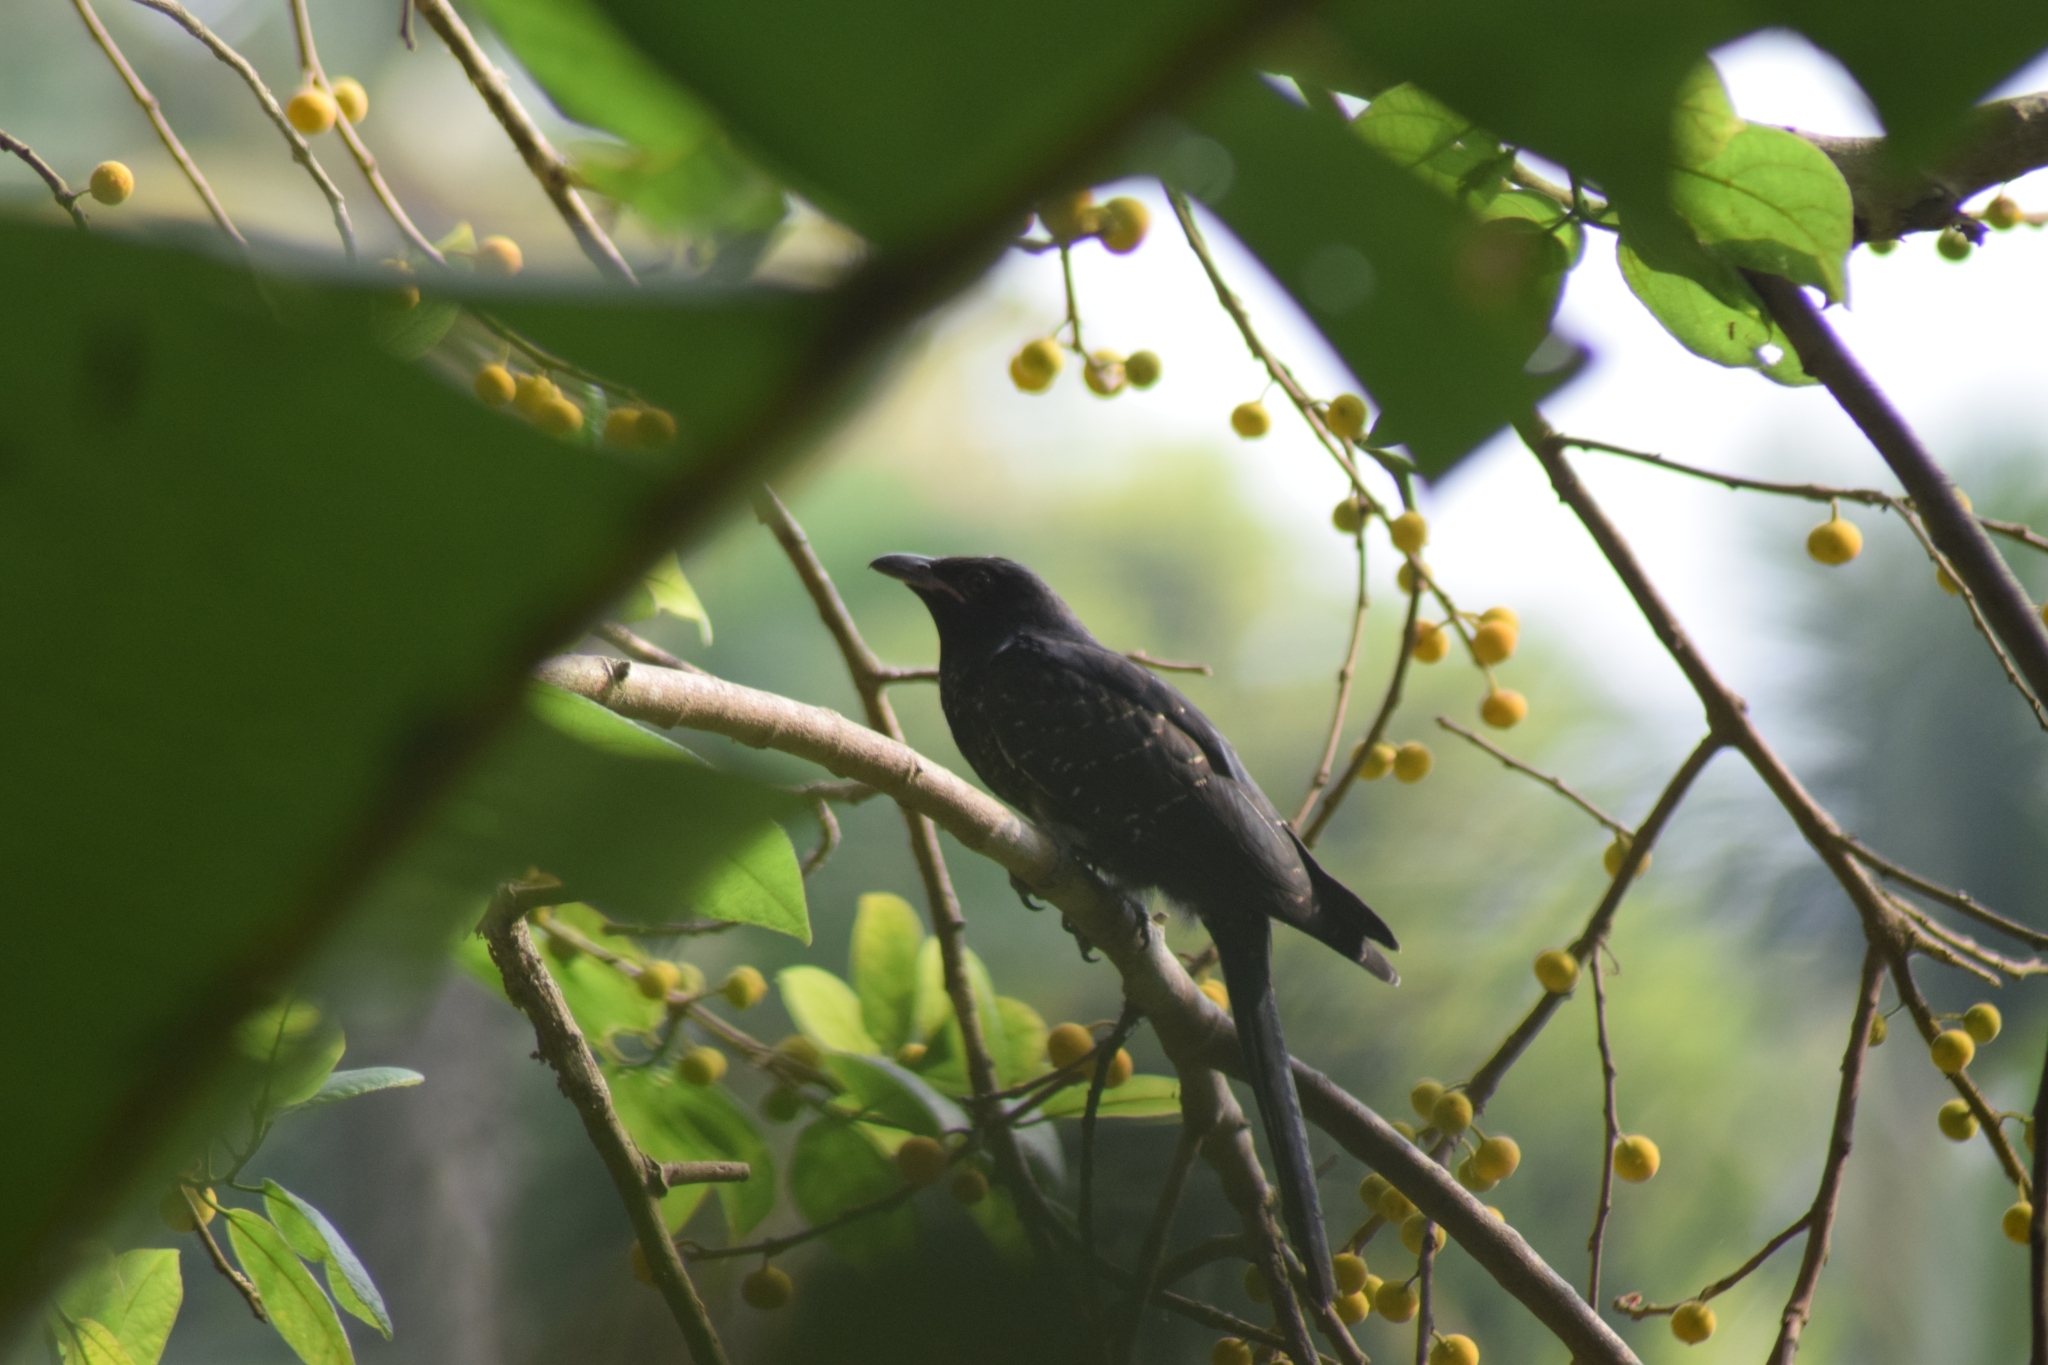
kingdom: Animalia
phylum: Chordata
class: Aves
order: Cuculiformes
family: Cuculidae
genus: Eudynamys
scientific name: Eudynamys scolopaceus
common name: Asian koel
